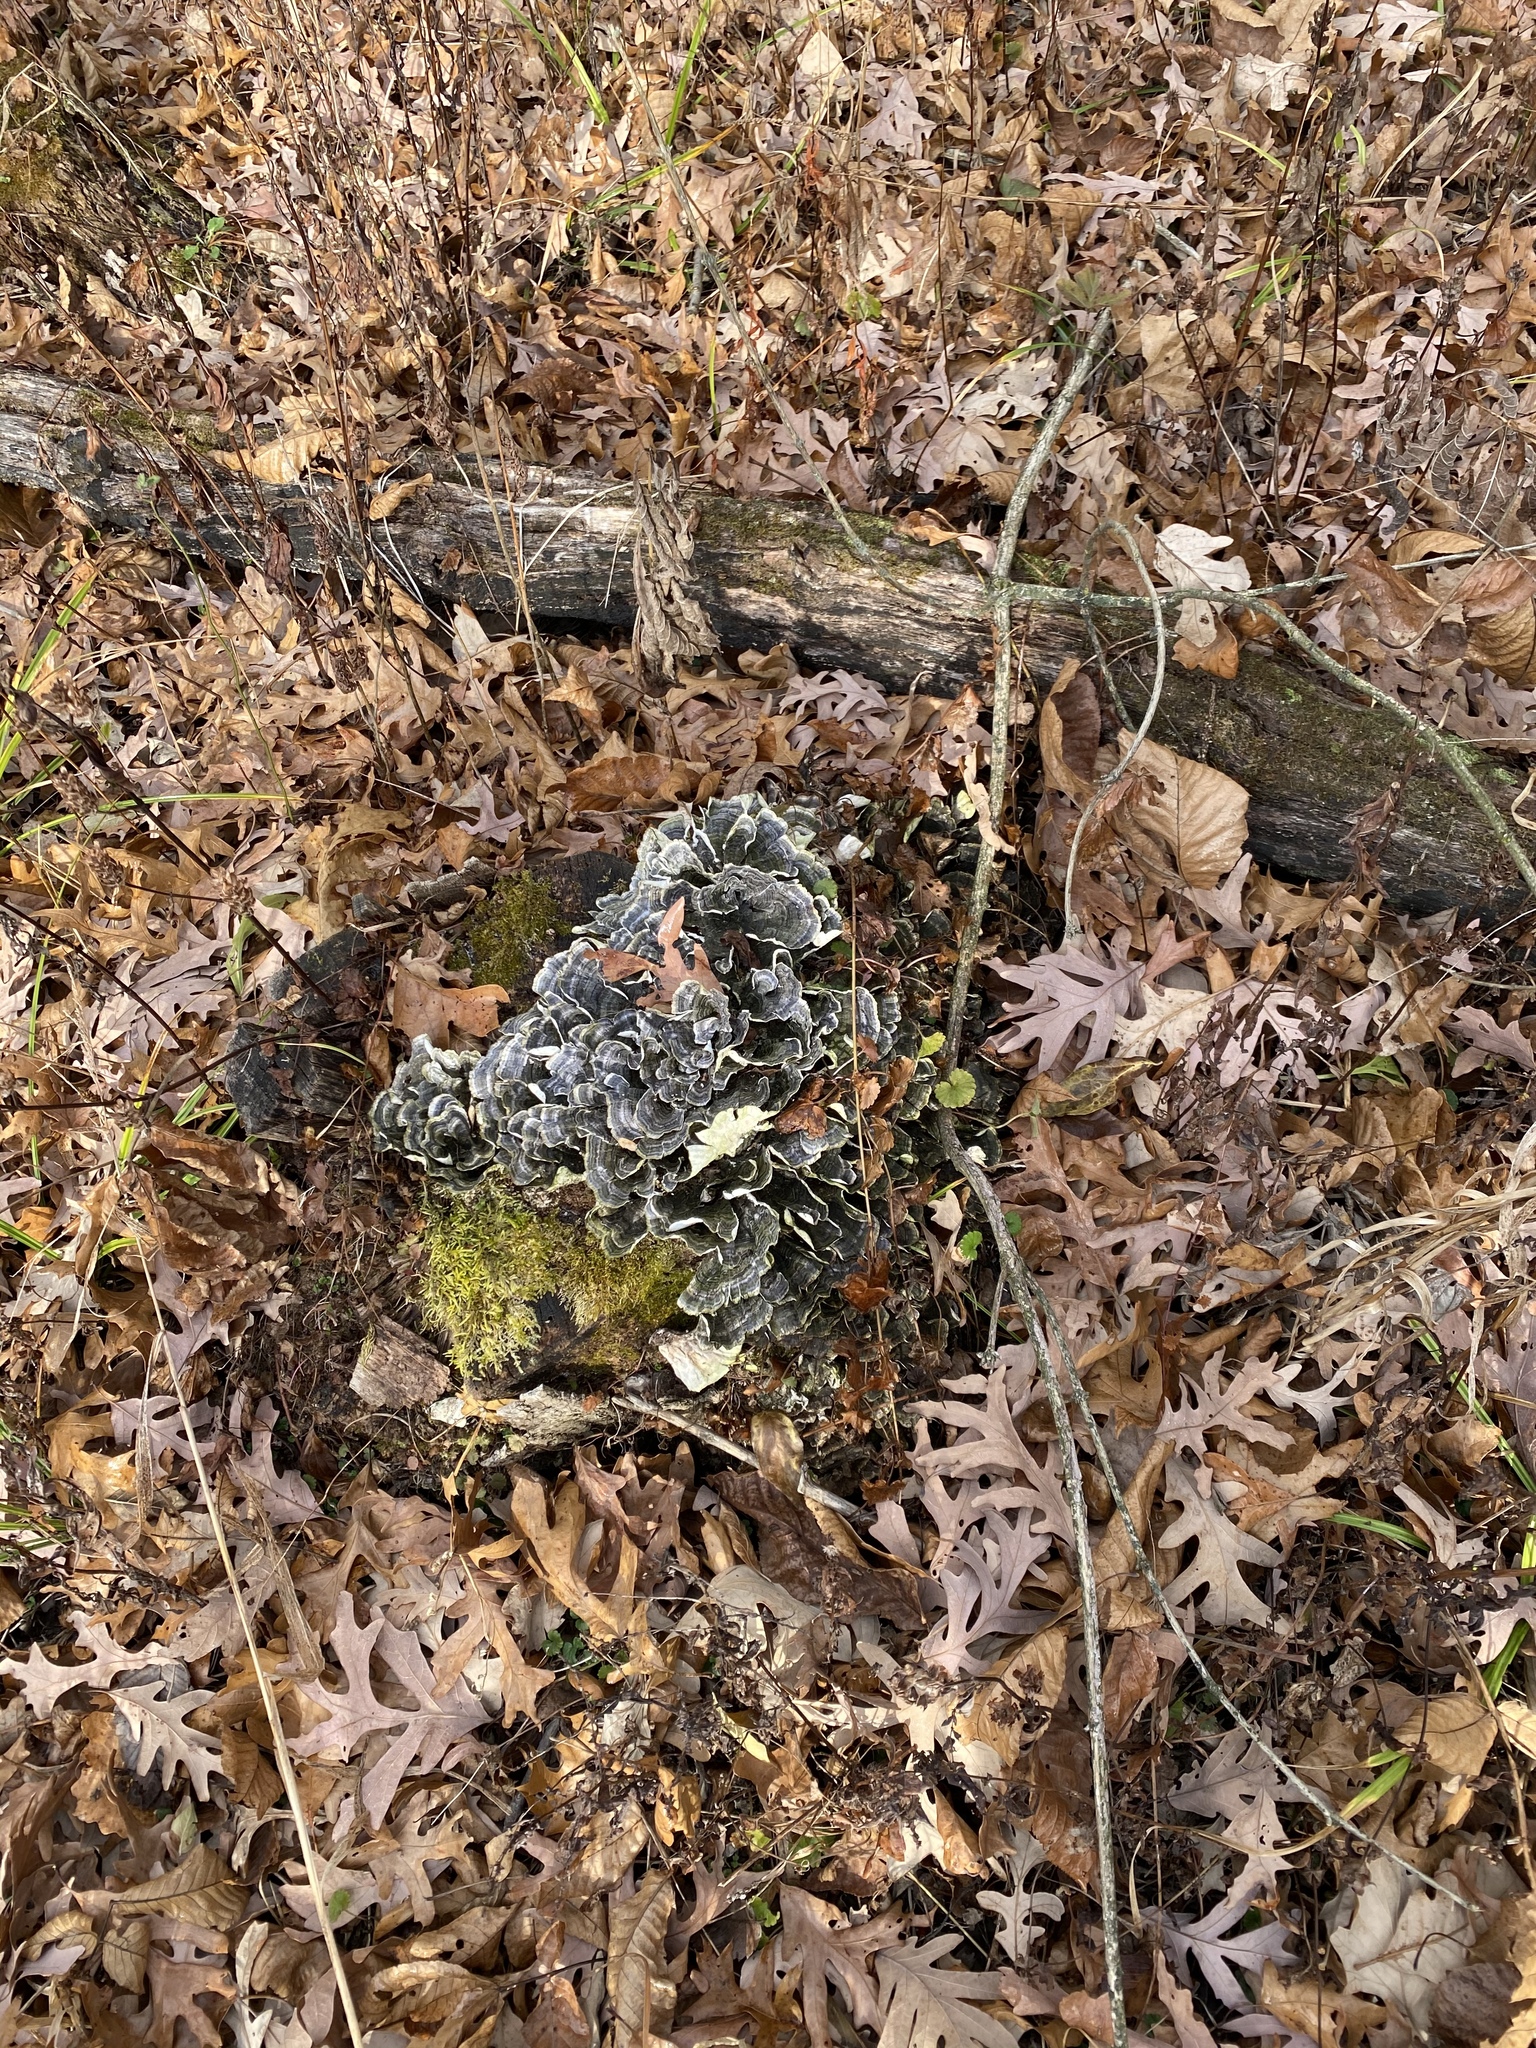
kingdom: Fungi
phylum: Basidiomycota
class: Agaricomycetes
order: Polyporales
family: Polyporaceae
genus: Trametes
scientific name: Trametes versicolor
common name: Turkeytail
